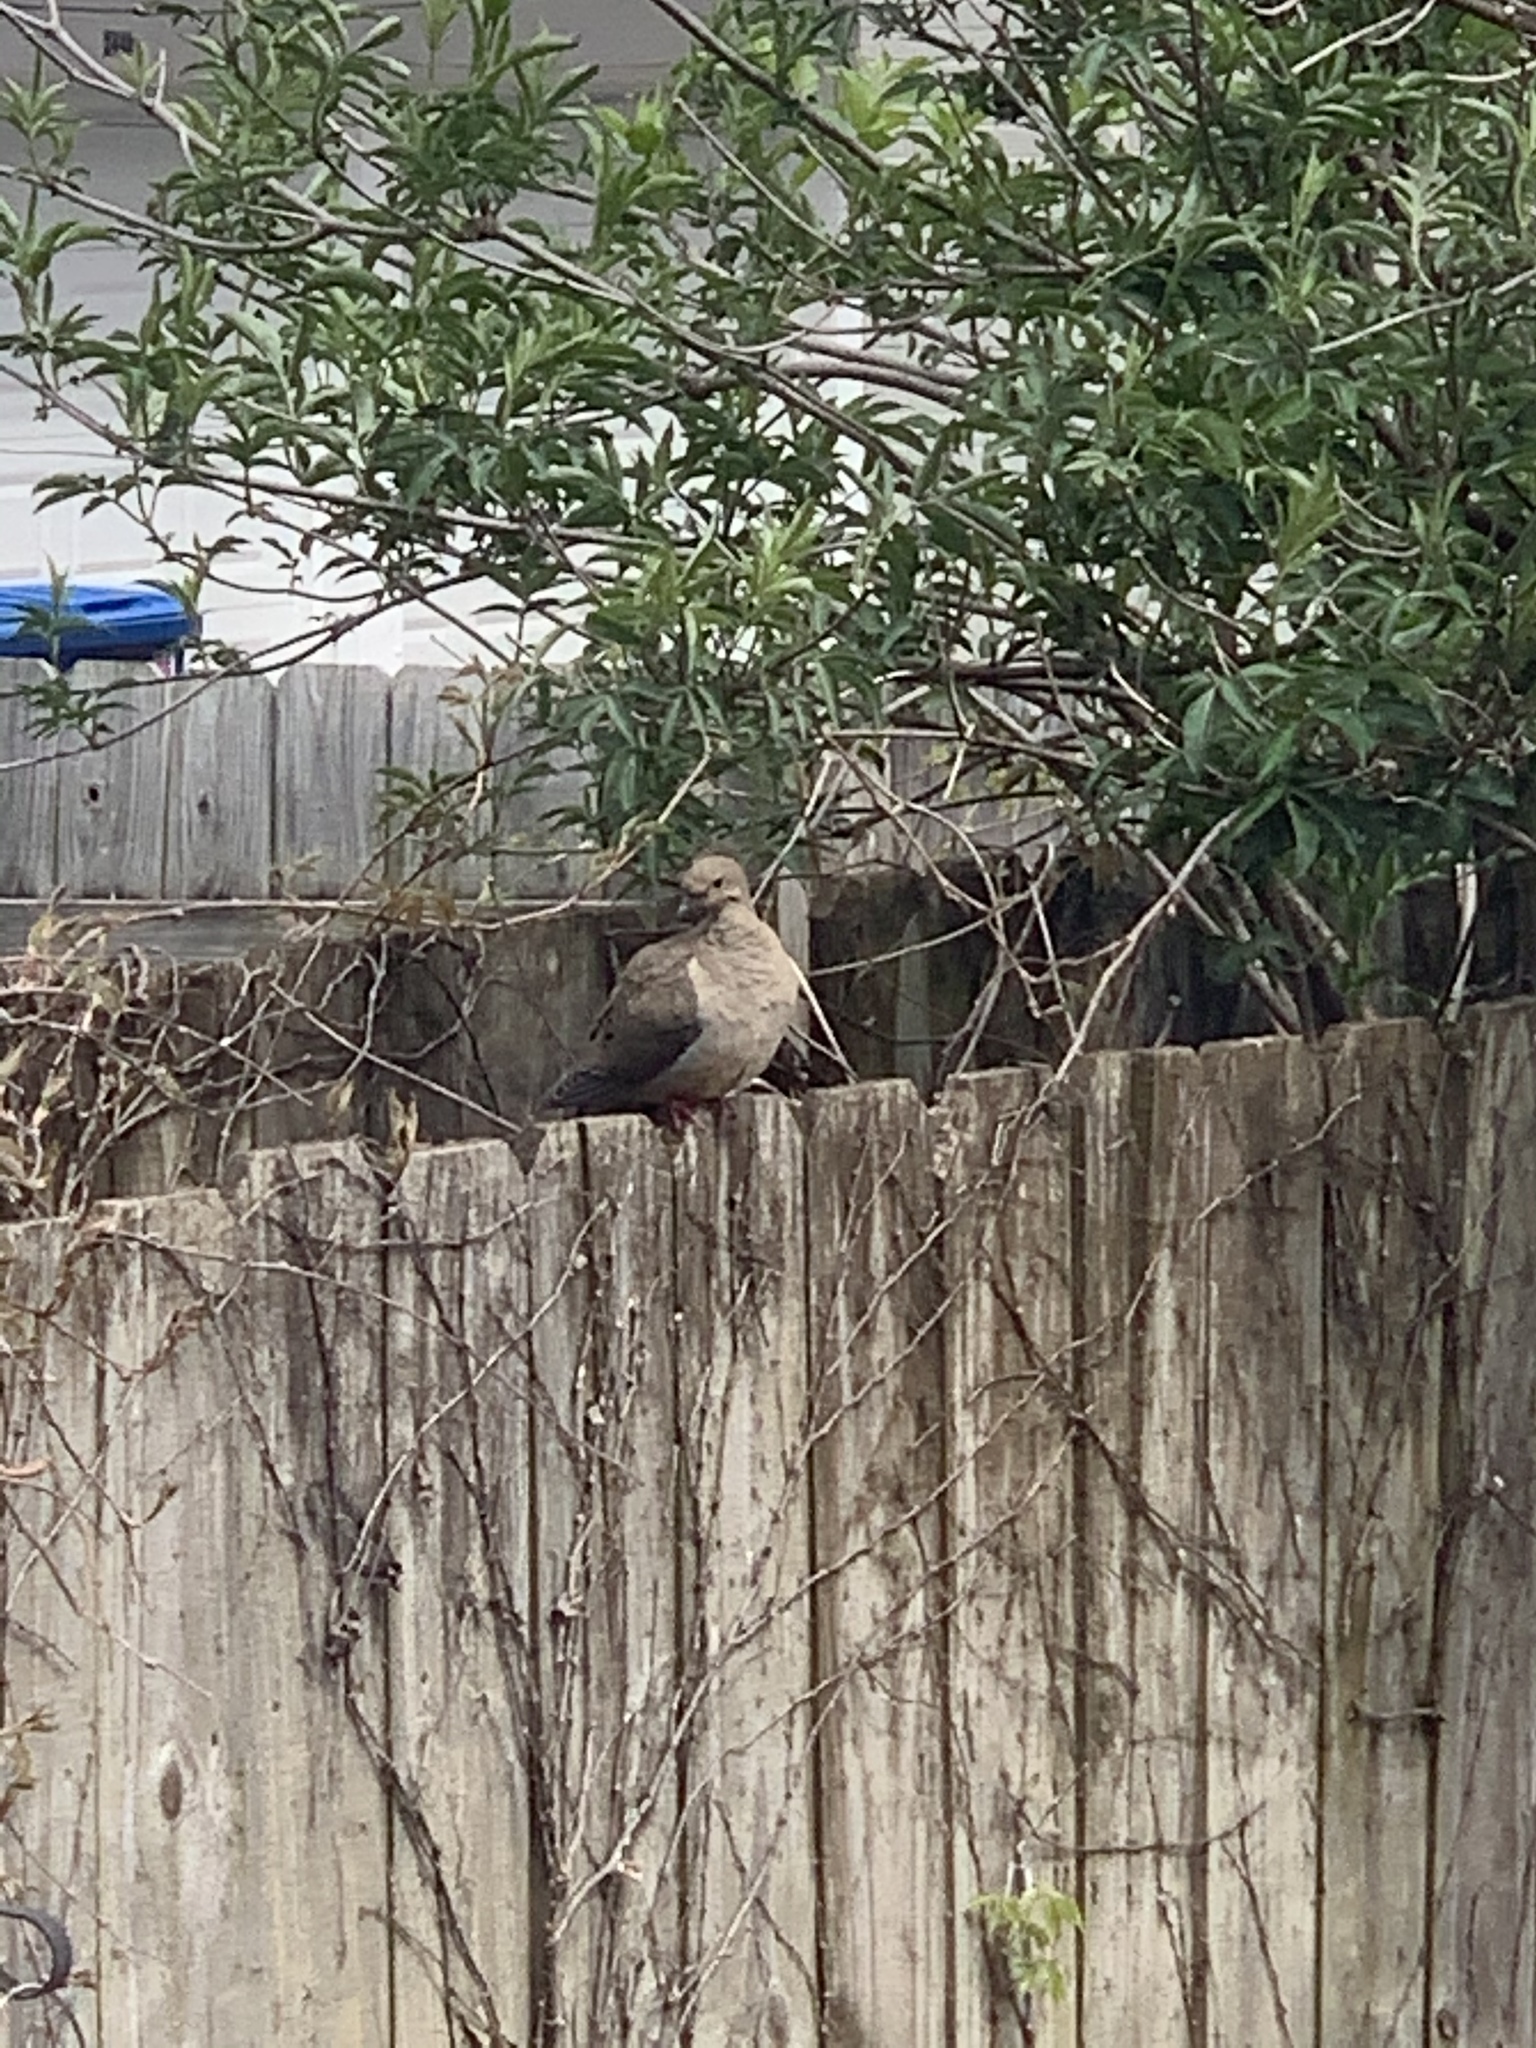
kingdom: Animalia
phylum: Chordata
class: Aves
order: Columbiformes
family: Columbidae
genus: Zenaida
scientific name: Zenaida macroura
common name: Mourning dove
